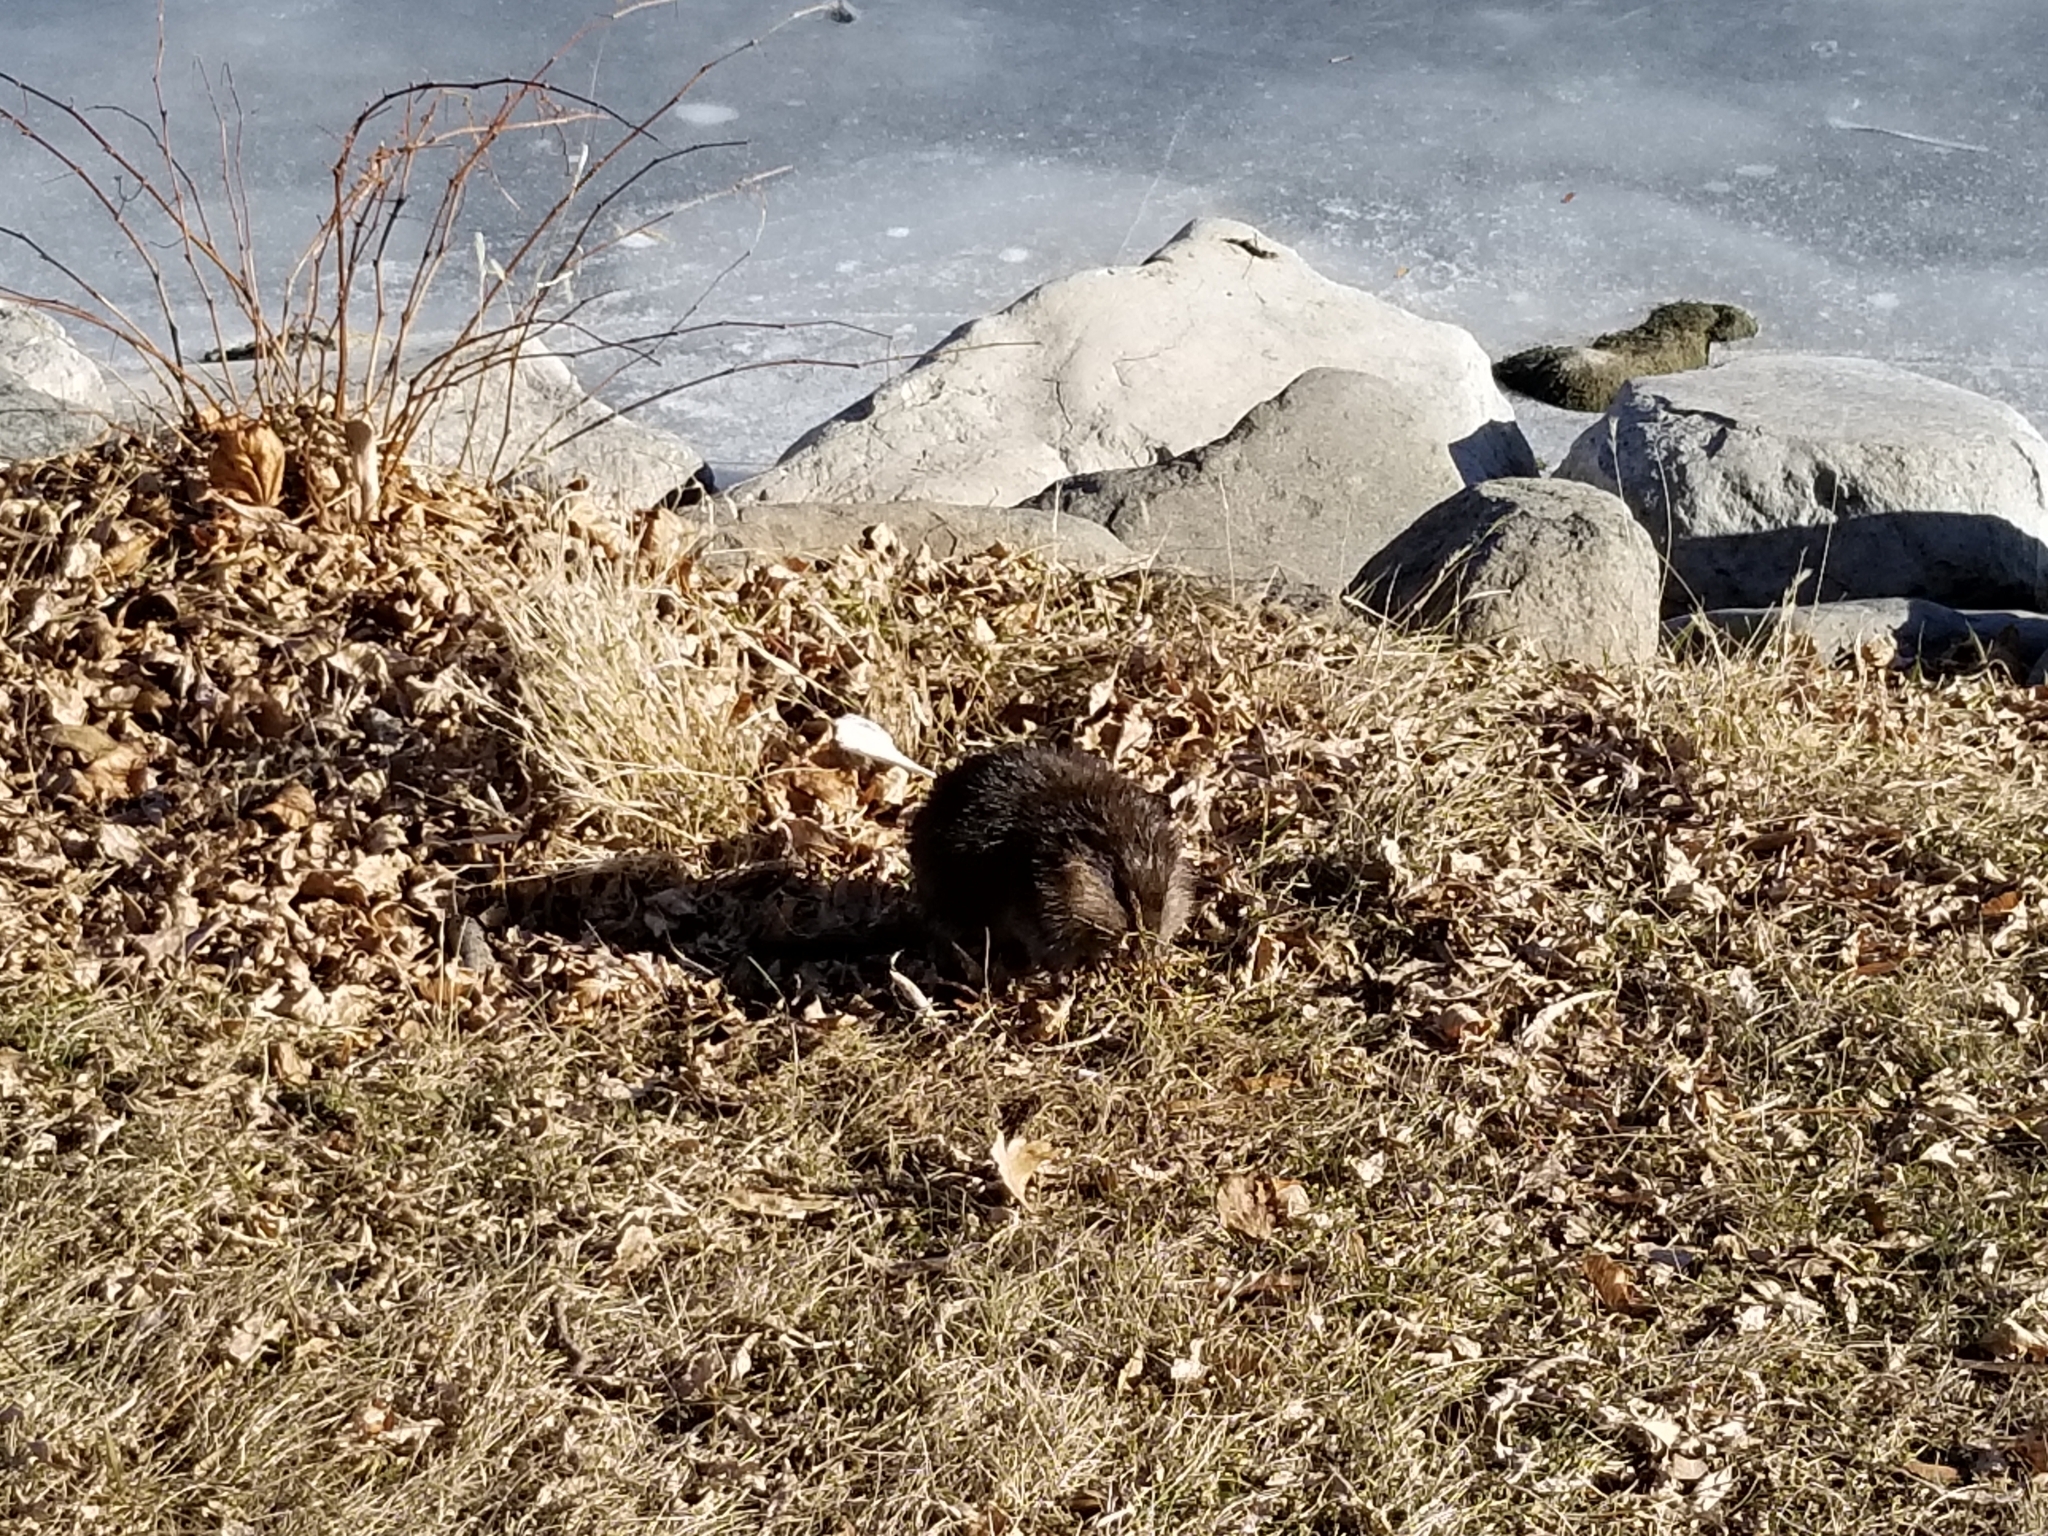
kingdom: Animalia
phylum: Chordata
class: Mammalia
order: Rodentia
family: Cricetidae
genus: Ondatra
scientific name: Ondatra zibethicus
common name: Muskrat
